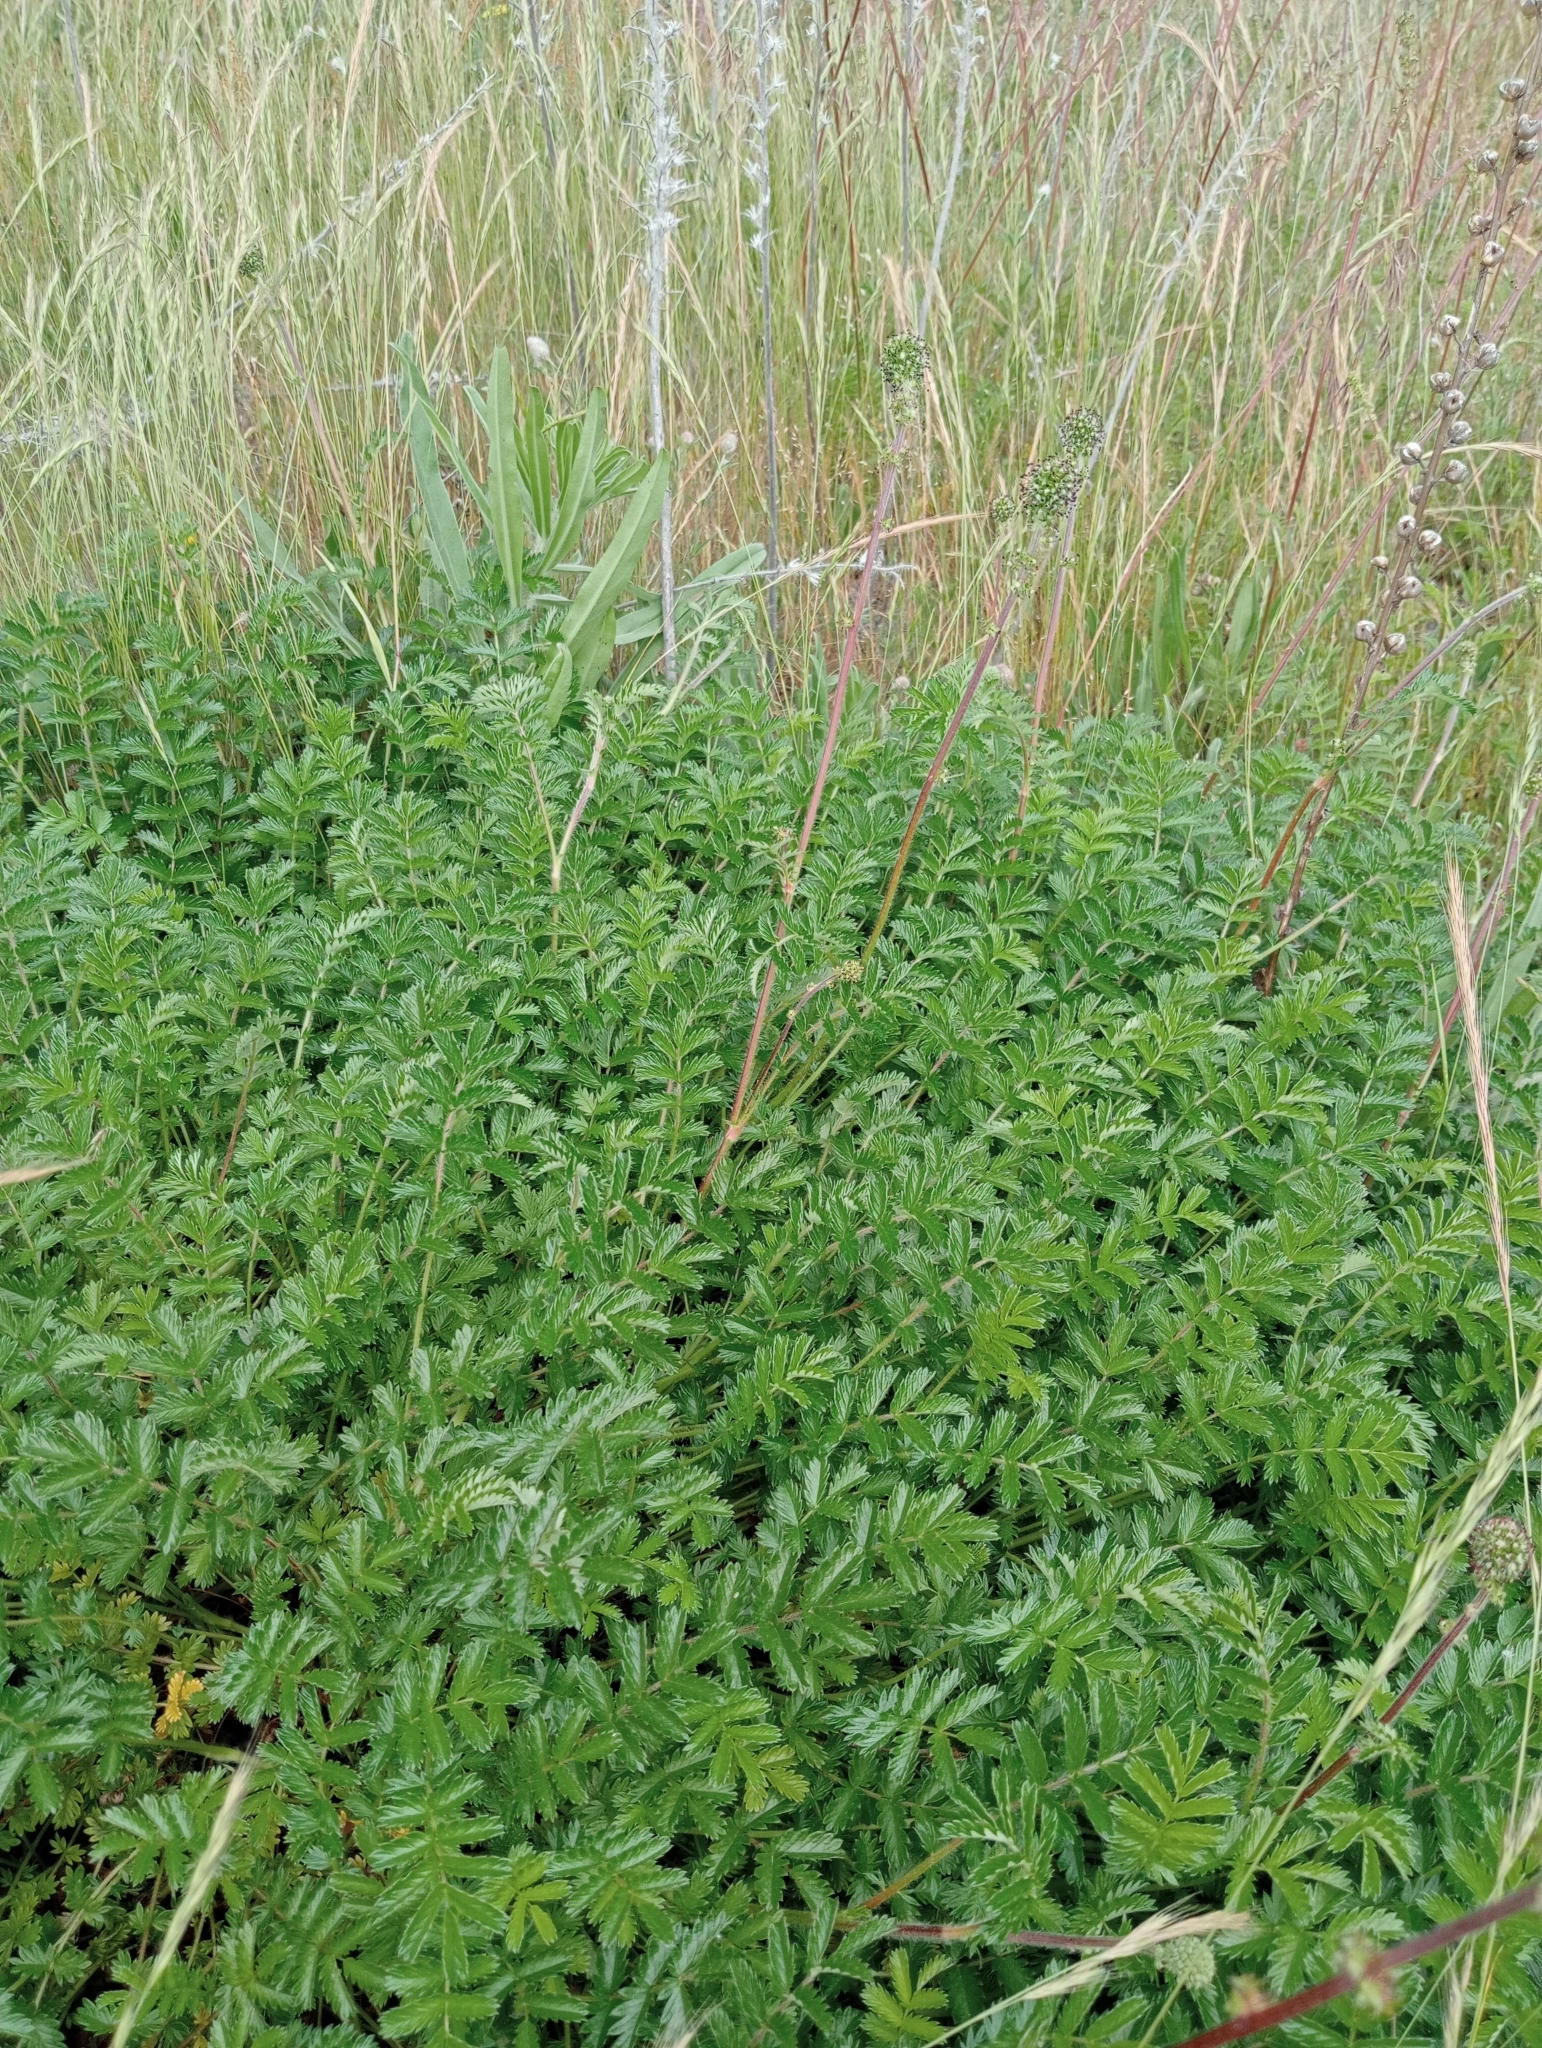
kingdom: Plantae
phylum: Tracheophyta
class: Magnoliopsida
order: Rosales
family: Rosaceae
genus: Acaena
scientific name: Acaena agnipila
